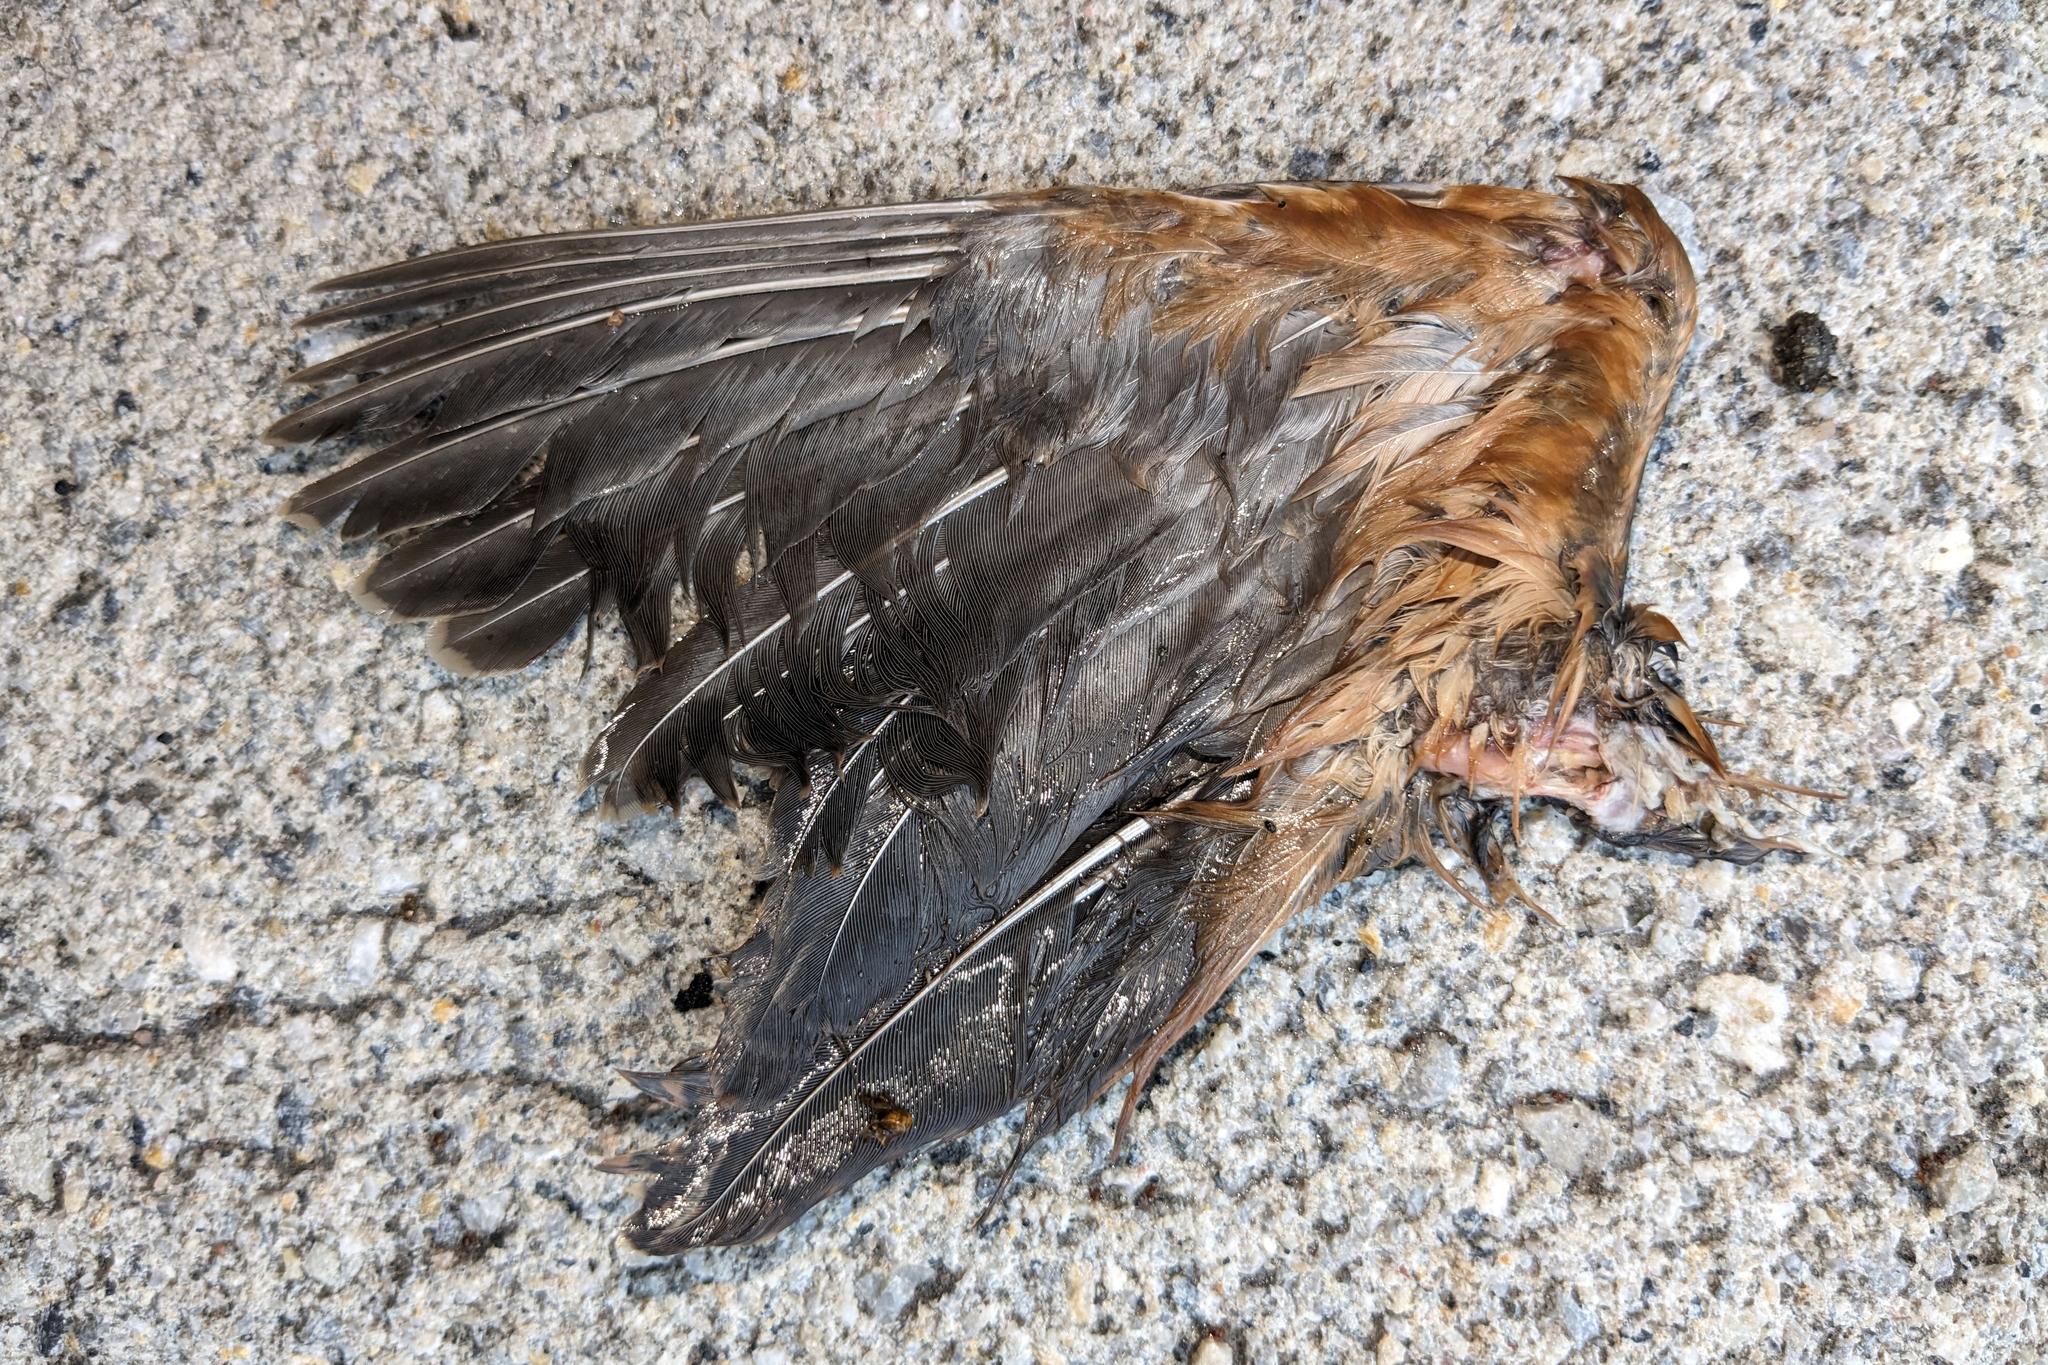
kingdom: Animalia
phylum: Chordata
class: Aves
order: Charadriiformes
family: Scolopacidae
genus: Scolopax
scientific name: Scolopax minor
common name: American woodcock
